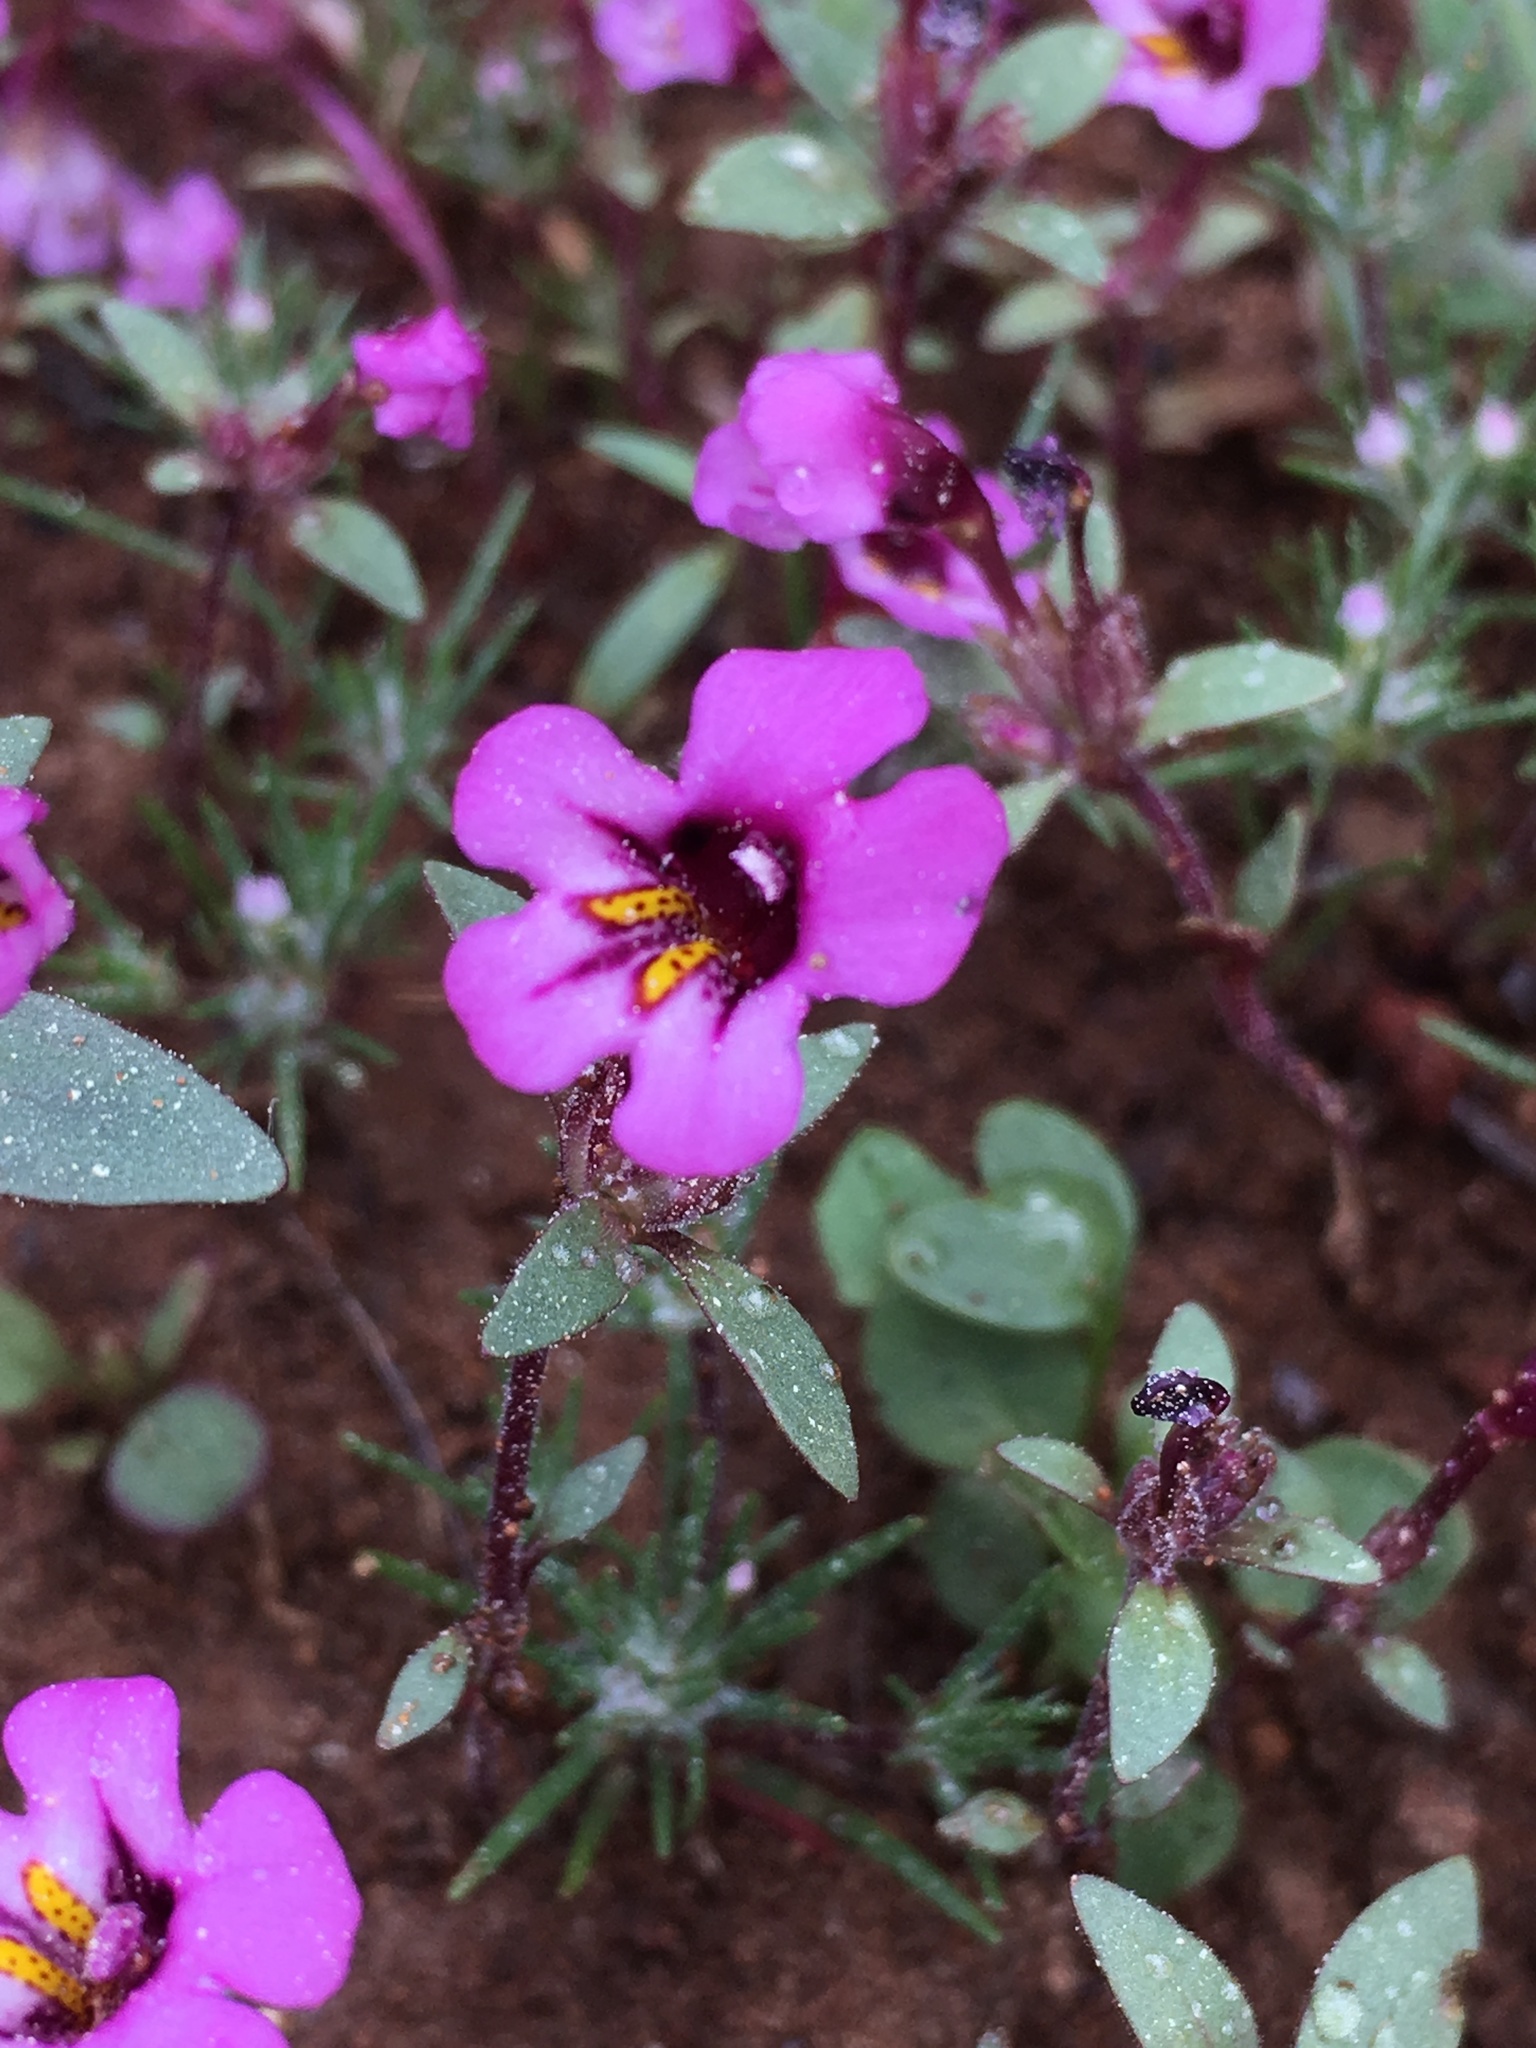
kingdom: Plantae
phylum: Tracheophyta
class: Magnoliopsida
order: Lamiales
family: Phrymaceae
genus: Diplacus
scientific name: Diplacus jepsonii
